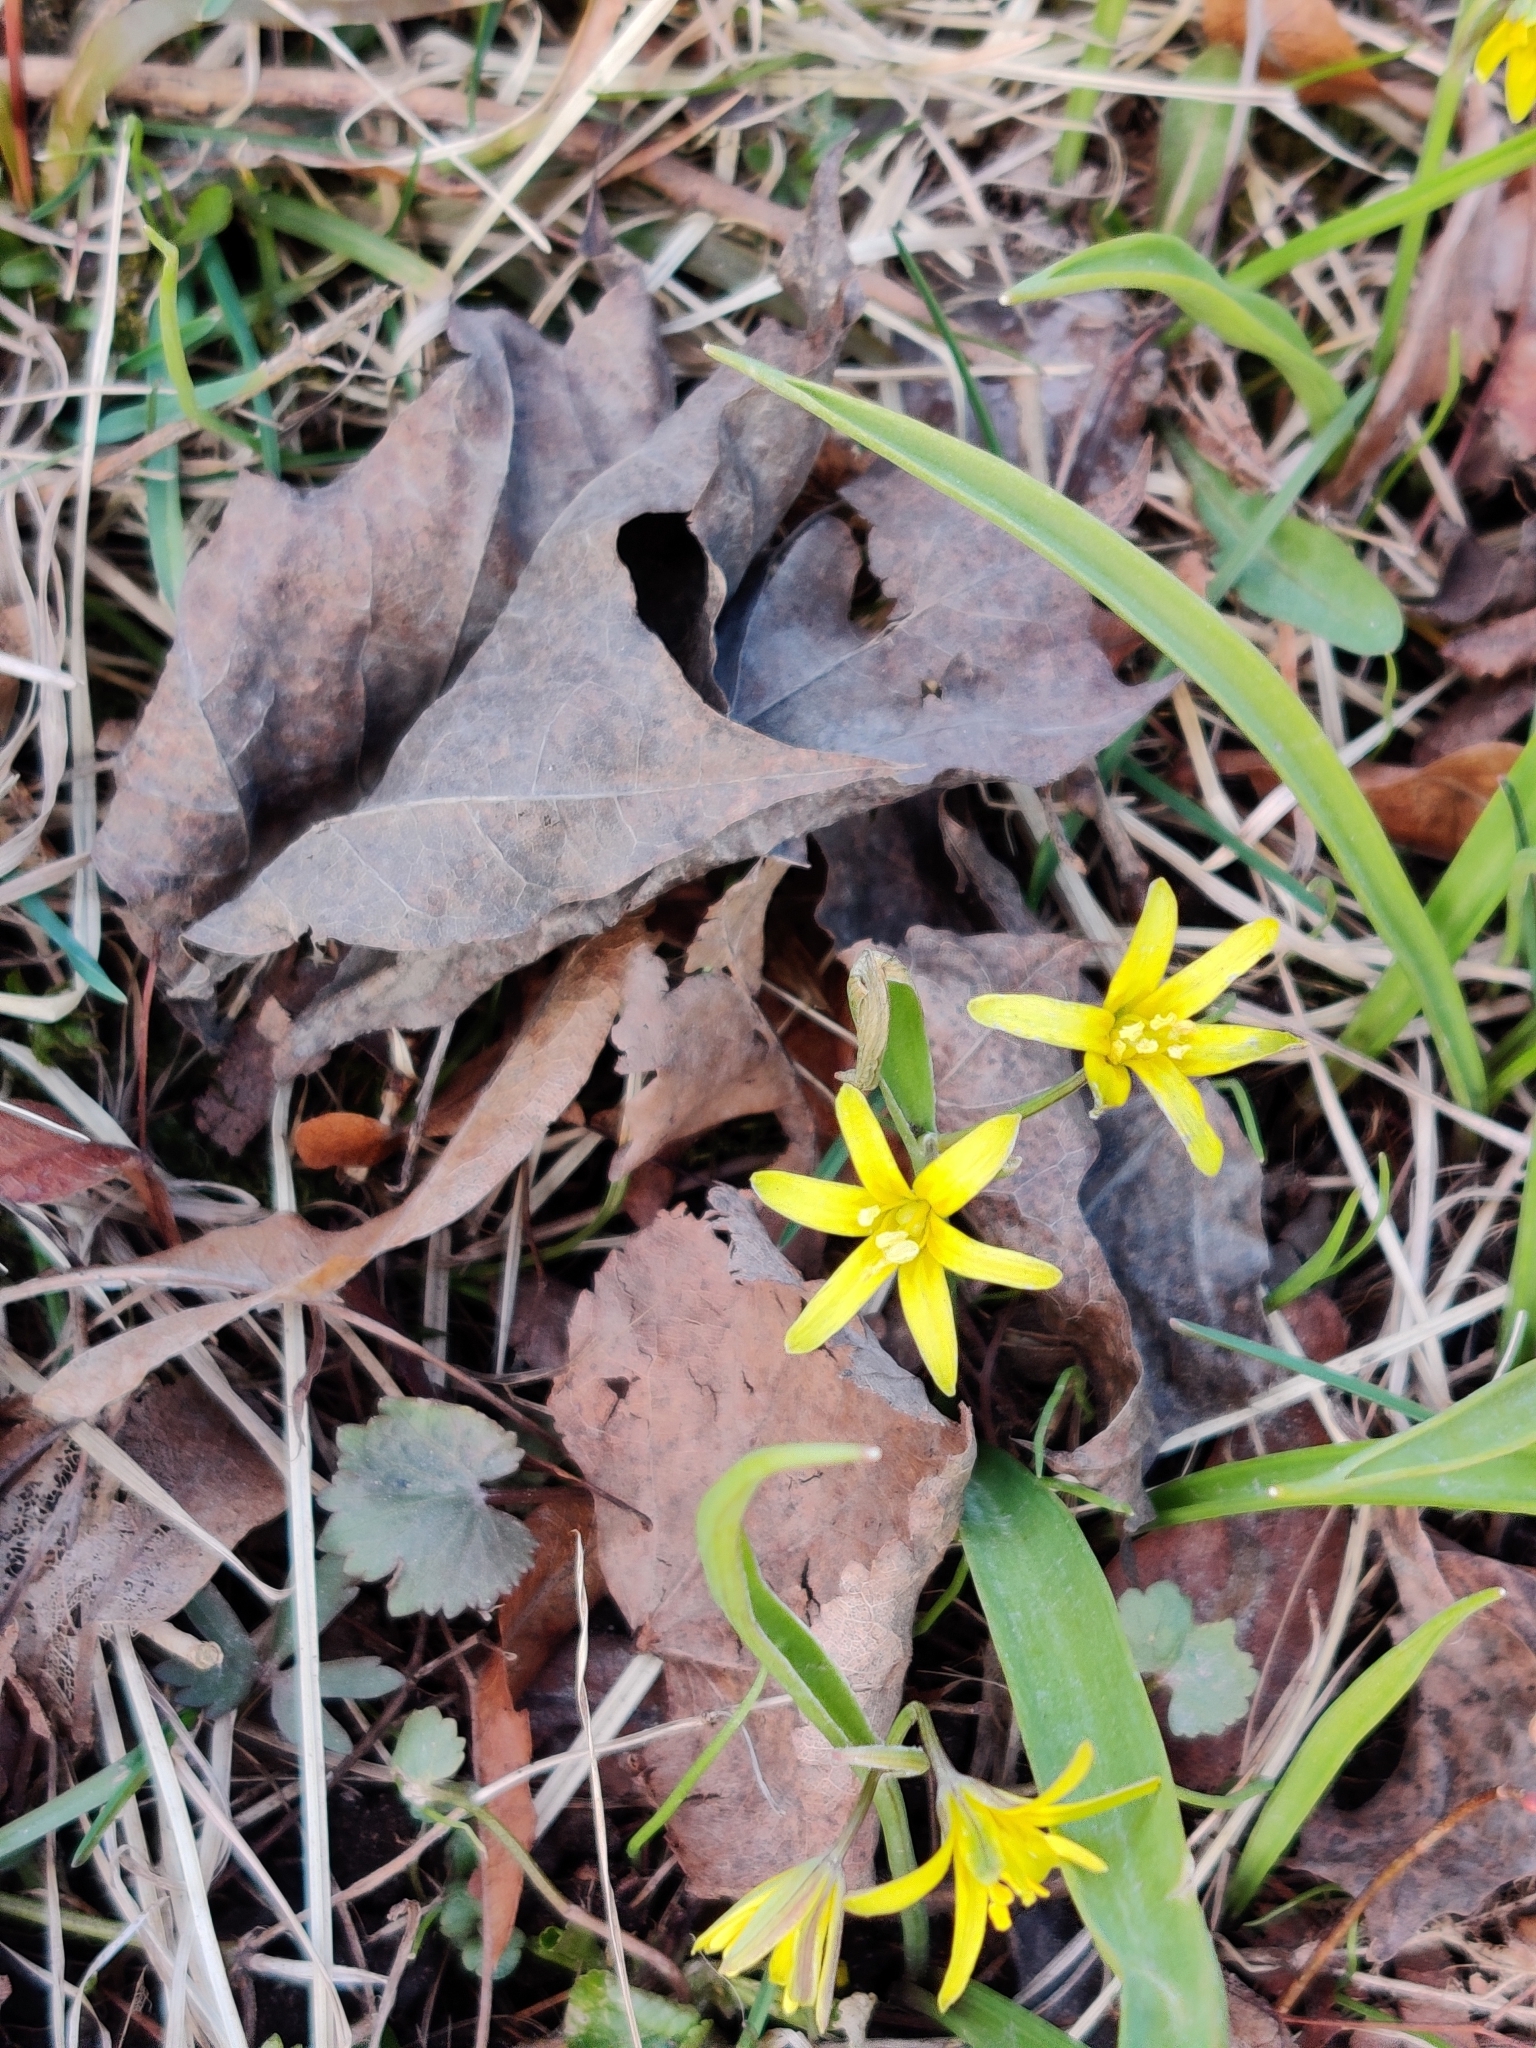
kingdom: Plantae
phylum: Tracheophyta
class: Liliopsida
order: Liliales
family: Liliaceae
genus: Gagea
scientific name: Gagea lutea
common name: Yellow star-of-bethlehem
